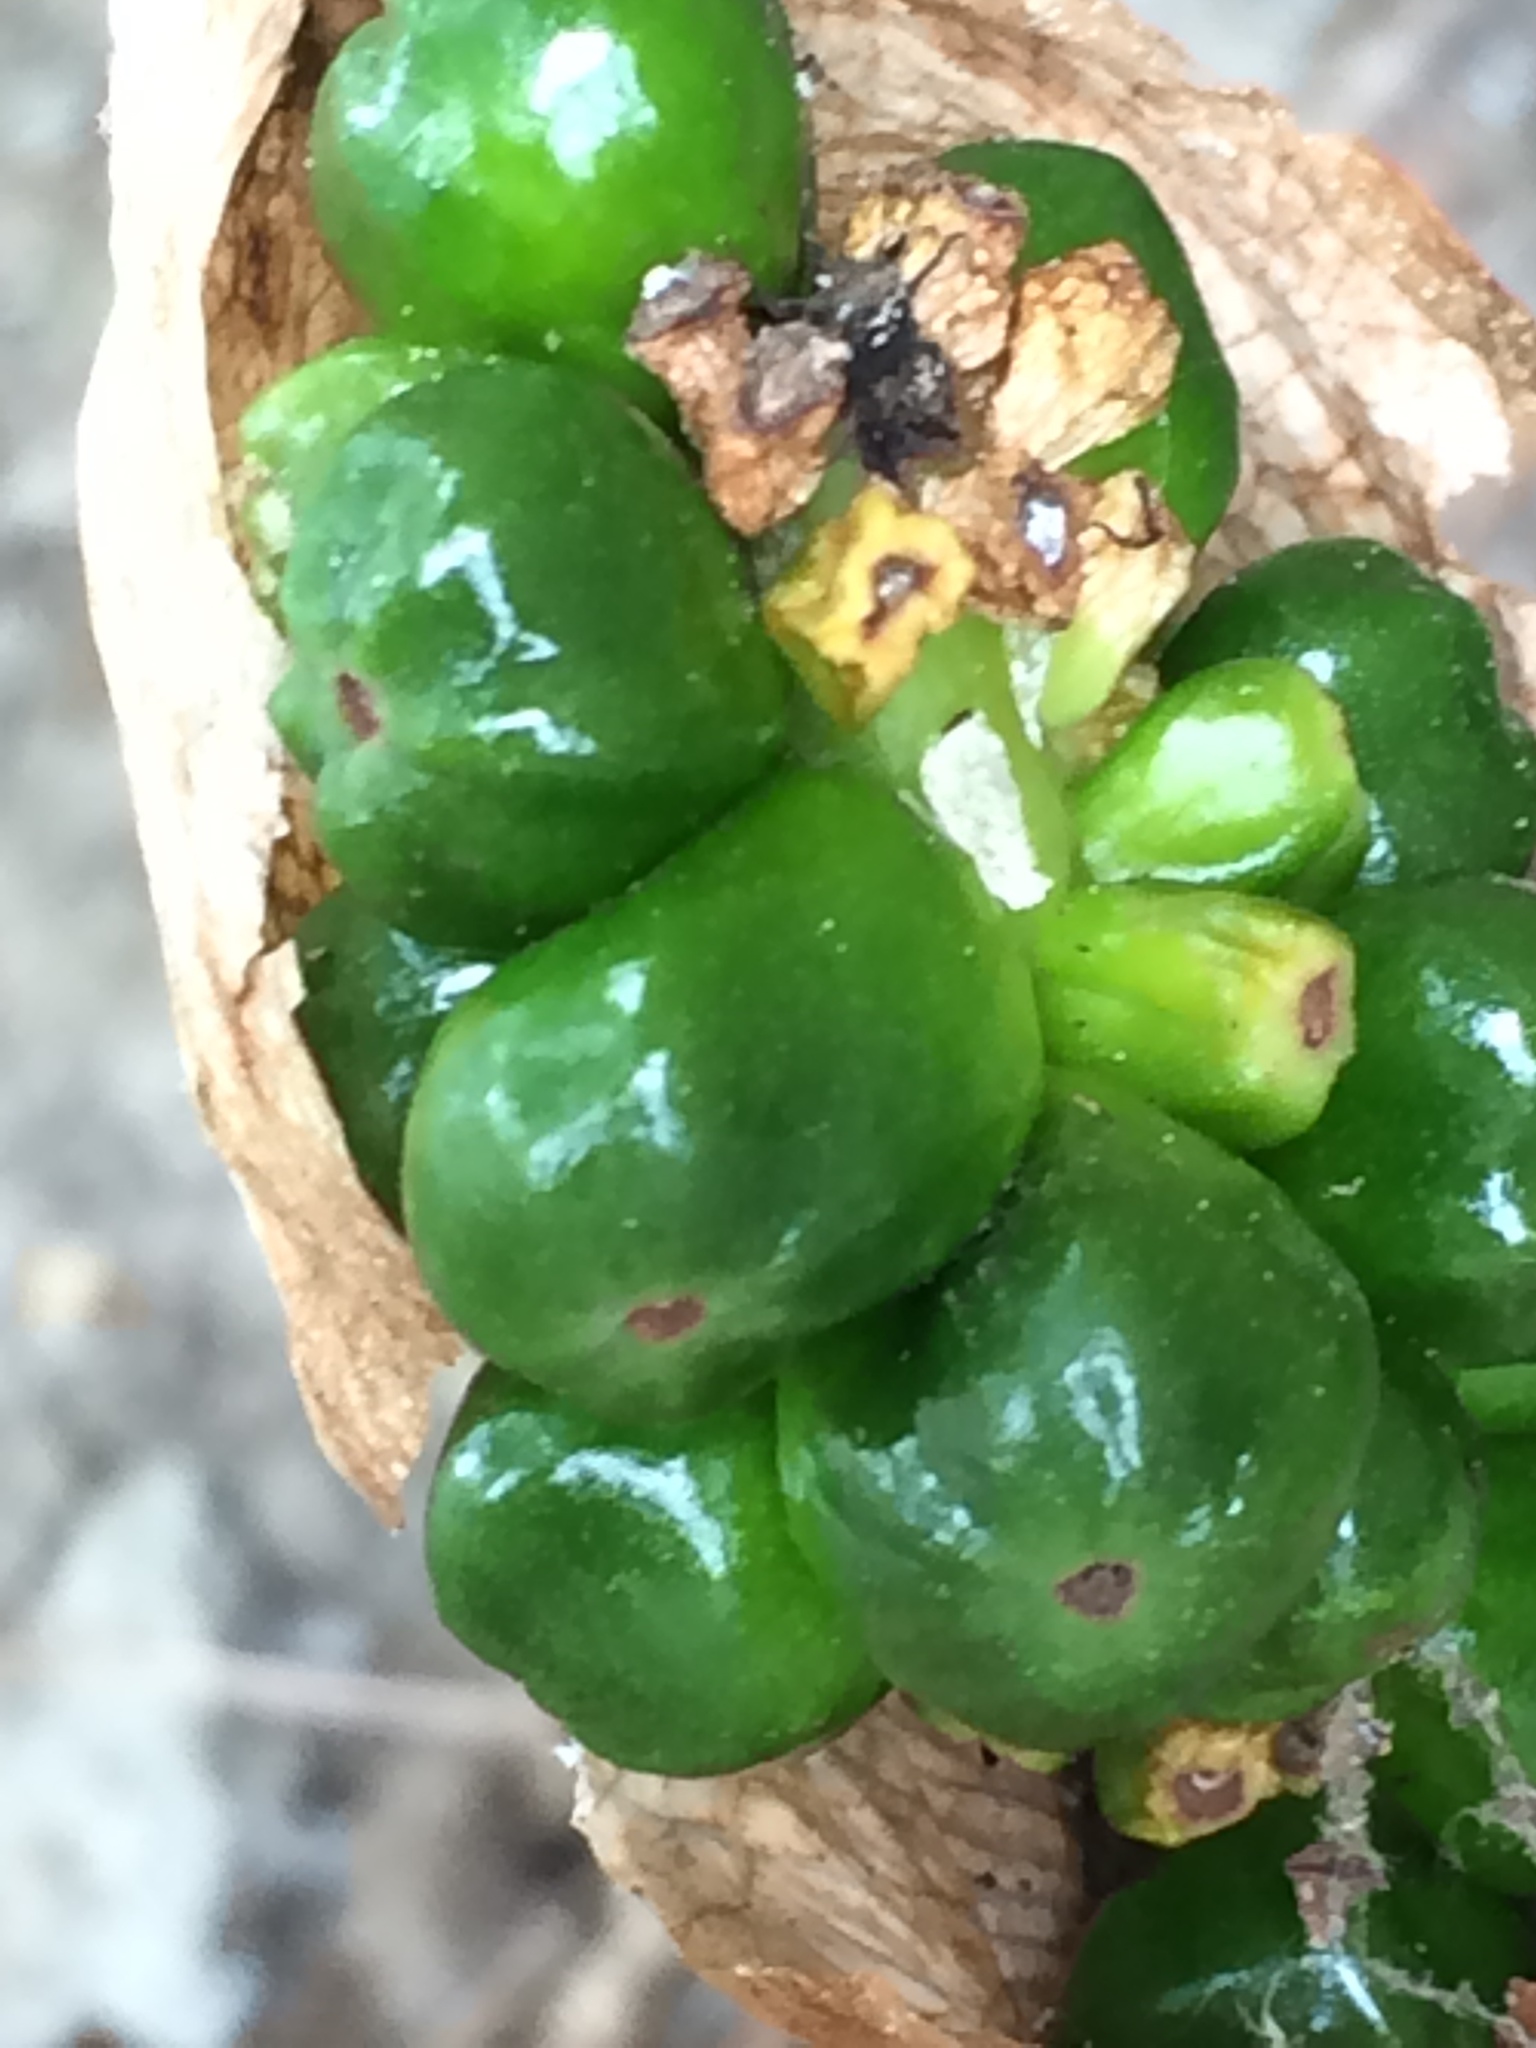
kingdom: Plantae
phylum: Tracheophyta
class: Liliopsida
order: Alismatales
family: Araceae
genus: Arum
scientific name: Arum italicum
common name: Italian lords-and-ladies
